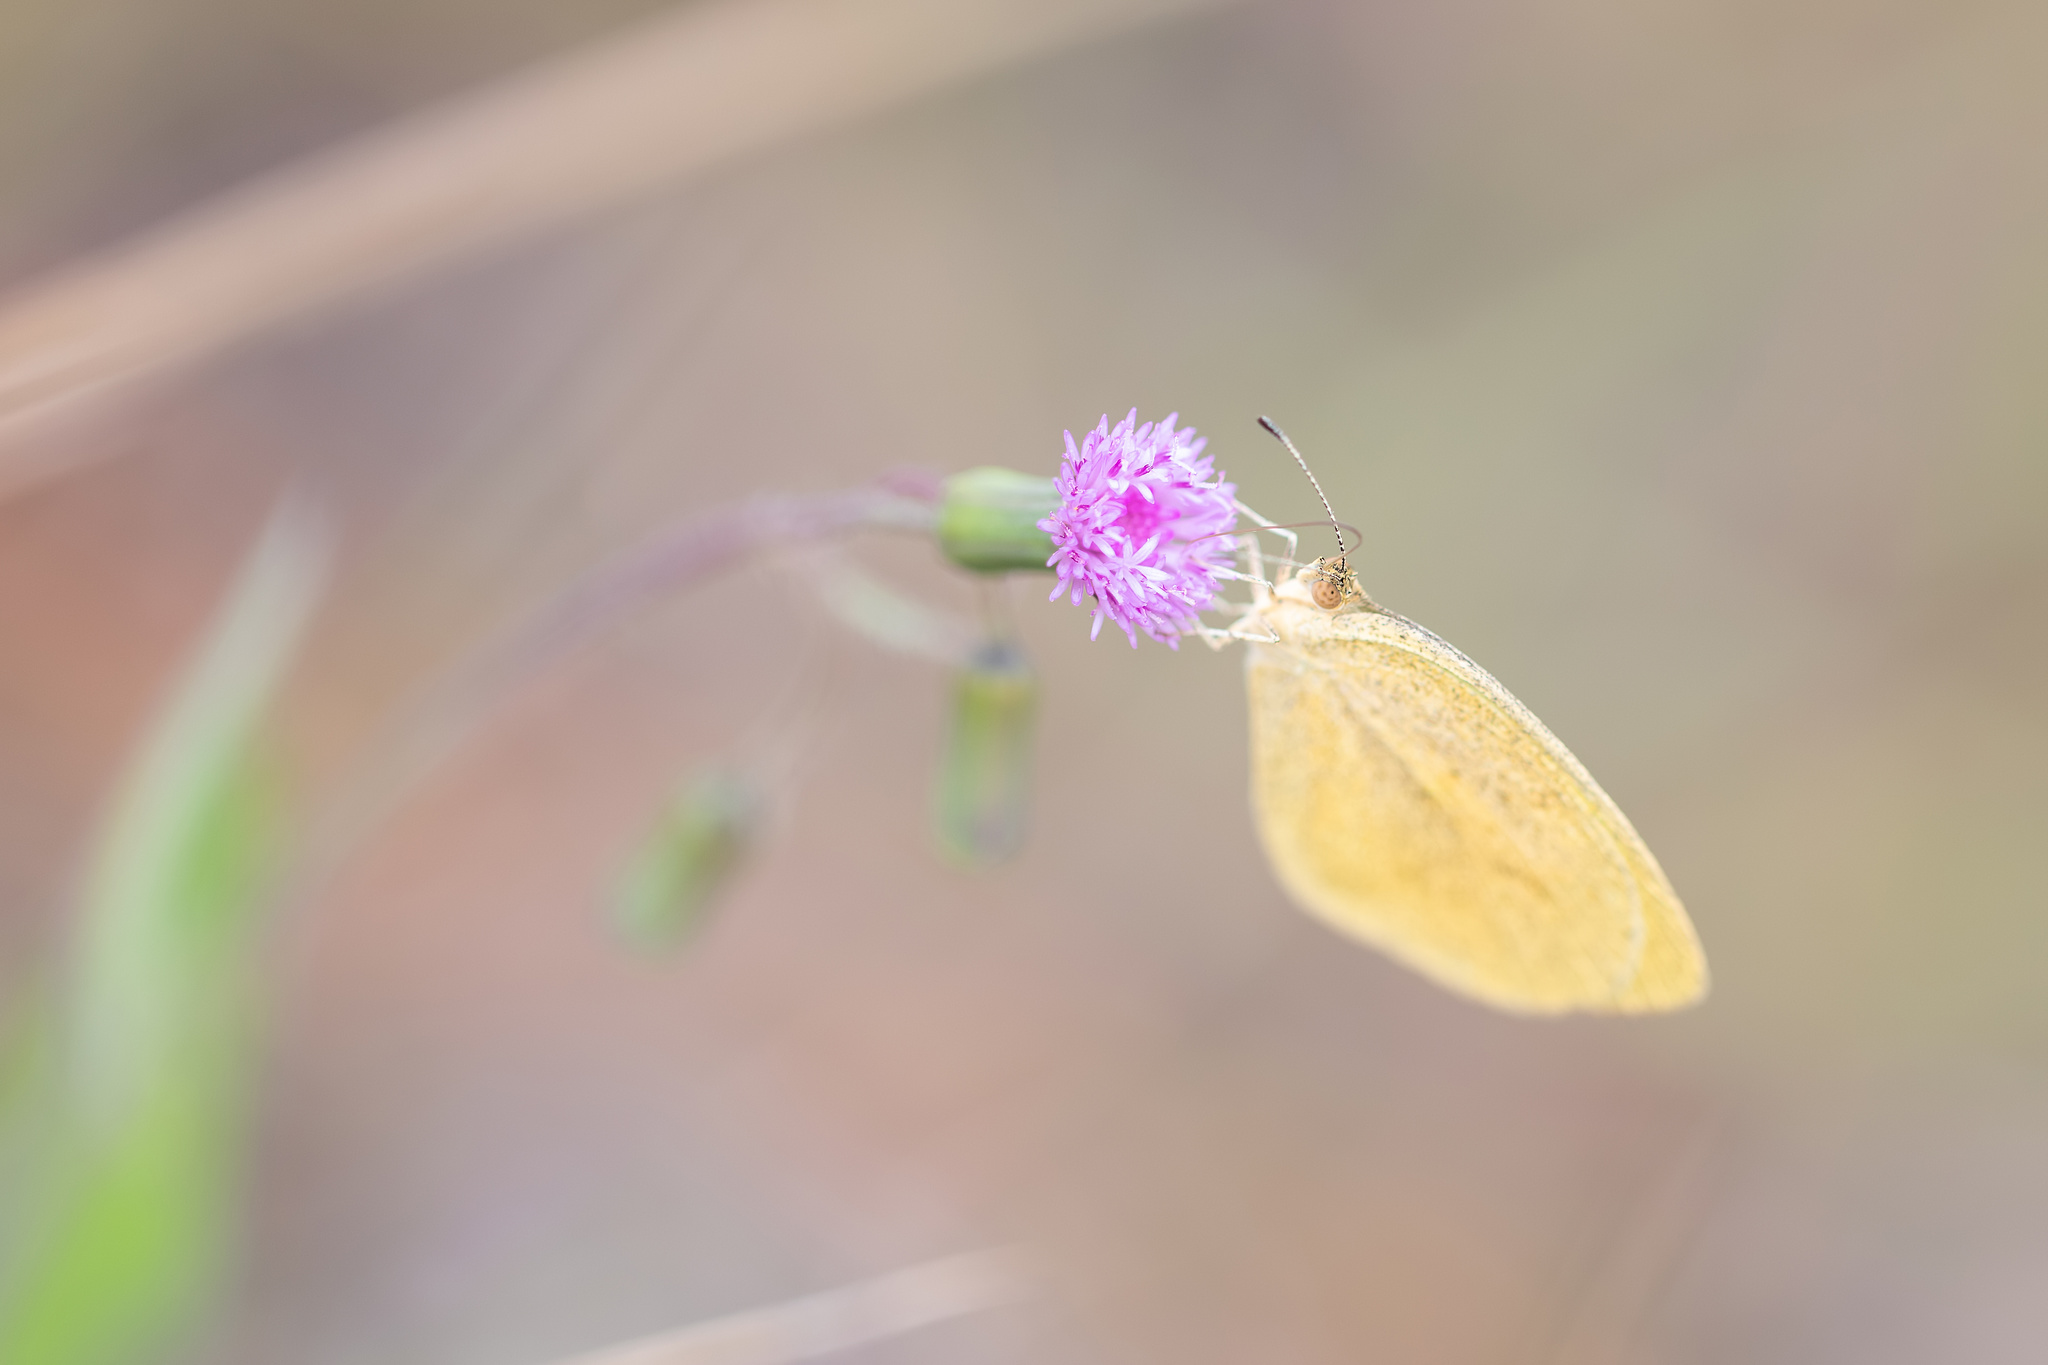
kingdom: Animalia
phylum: Arthropoda
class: Insecta
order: Lepidoptera
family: Pieridae
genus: Eurema
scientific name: Eurema daira
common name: Barred sulphur
